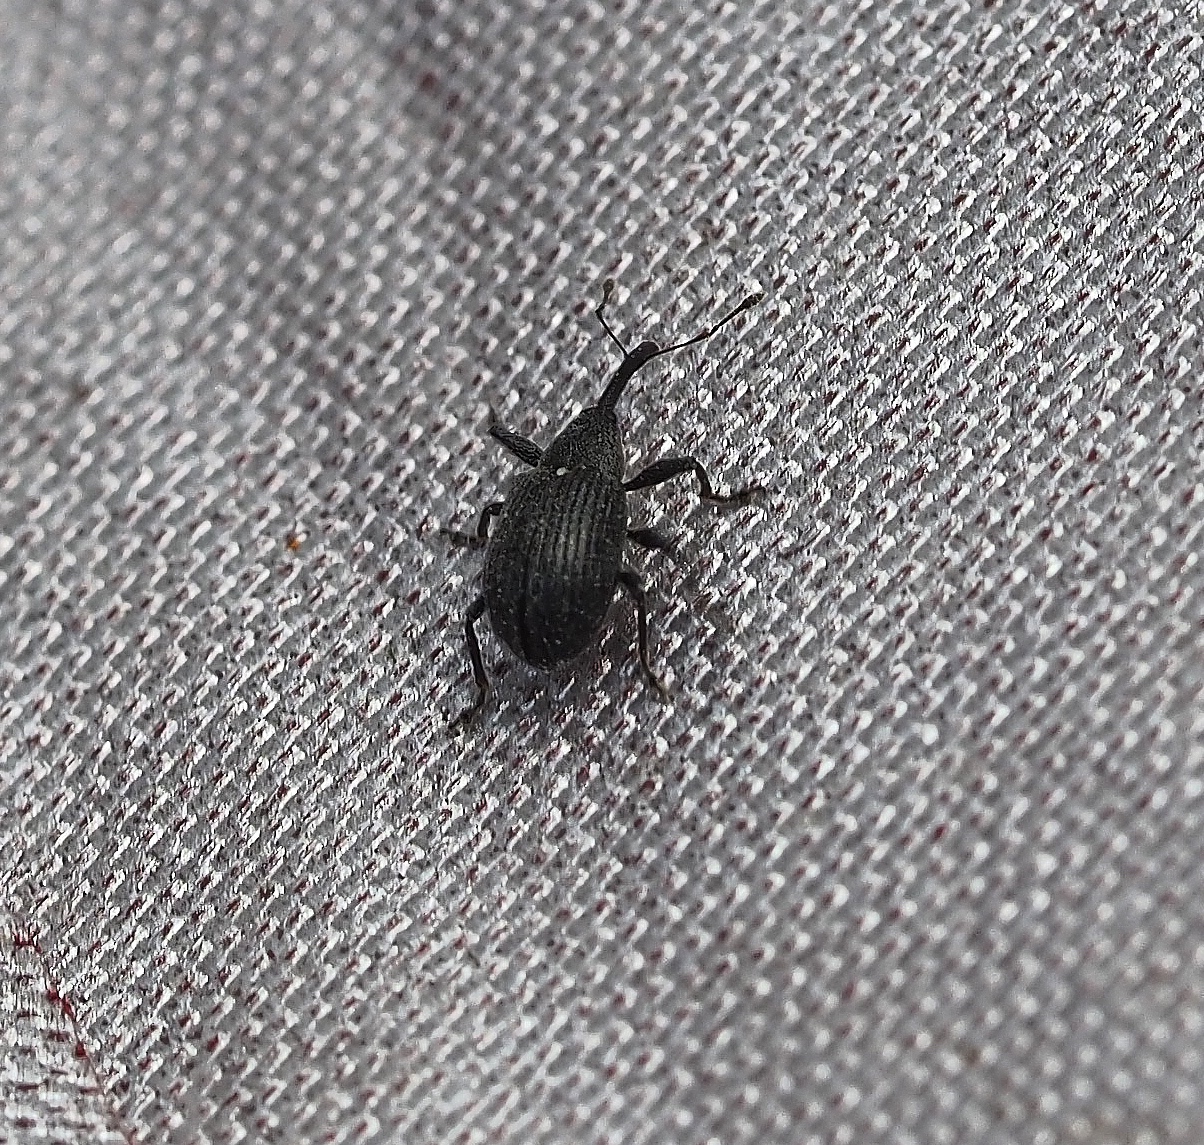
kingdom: Animalia
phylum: Arthropoda
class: Insecta
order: Coleoptera
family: Curculionidae
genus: Anthonomus
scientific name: Anthonomus rubi
